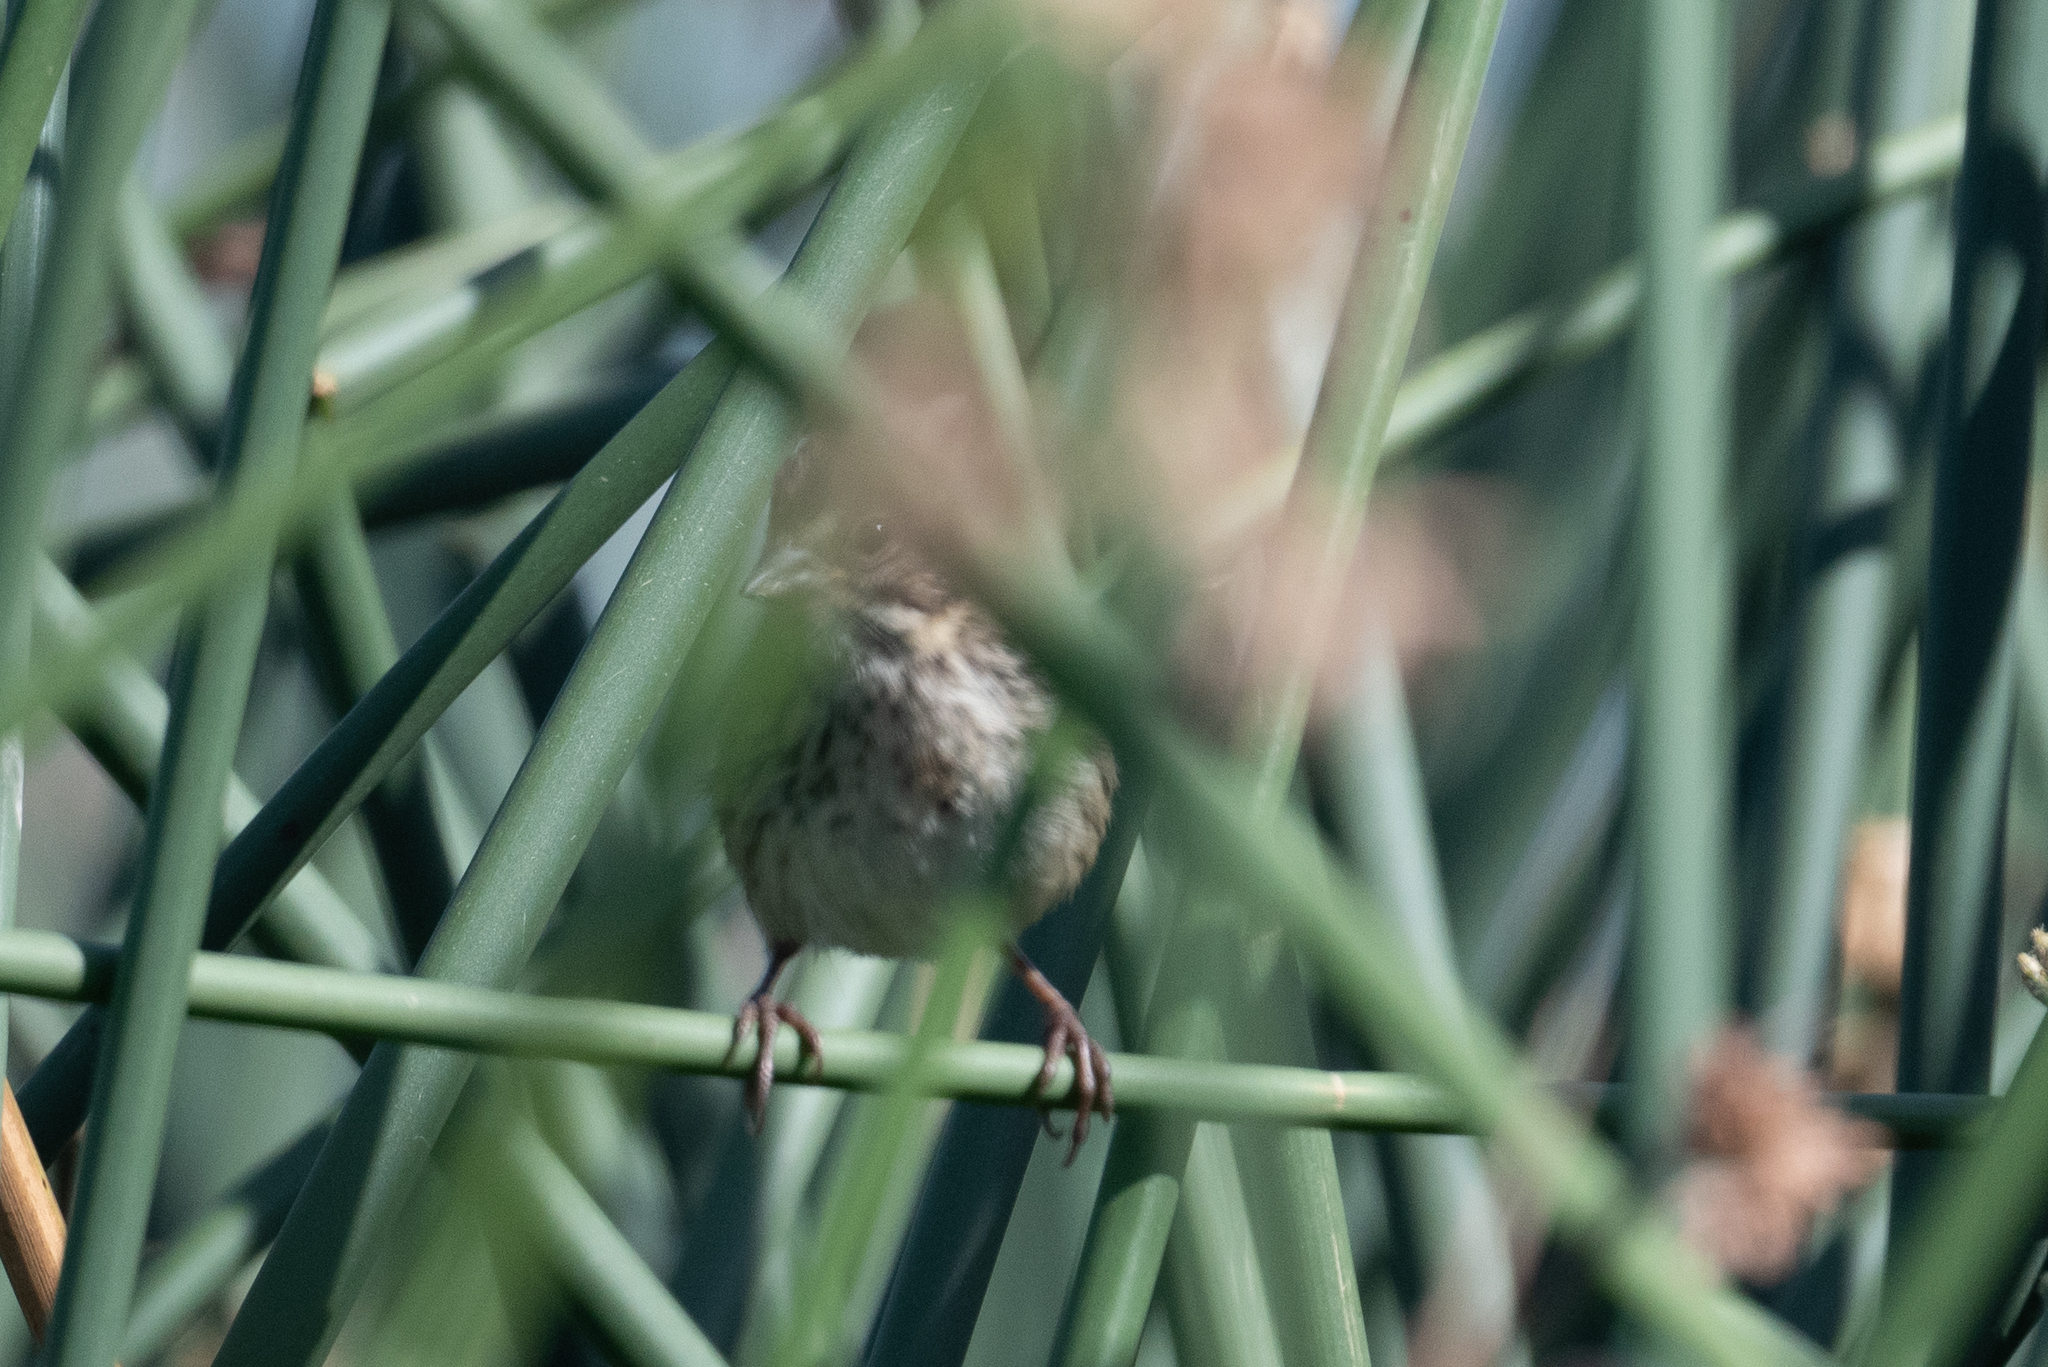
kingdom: Animalia
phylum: Chordata
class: Aves
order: Passeriformes
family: Passerellidae
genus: Melospiza
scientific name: Melospiza melodia
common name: Song sparrow
